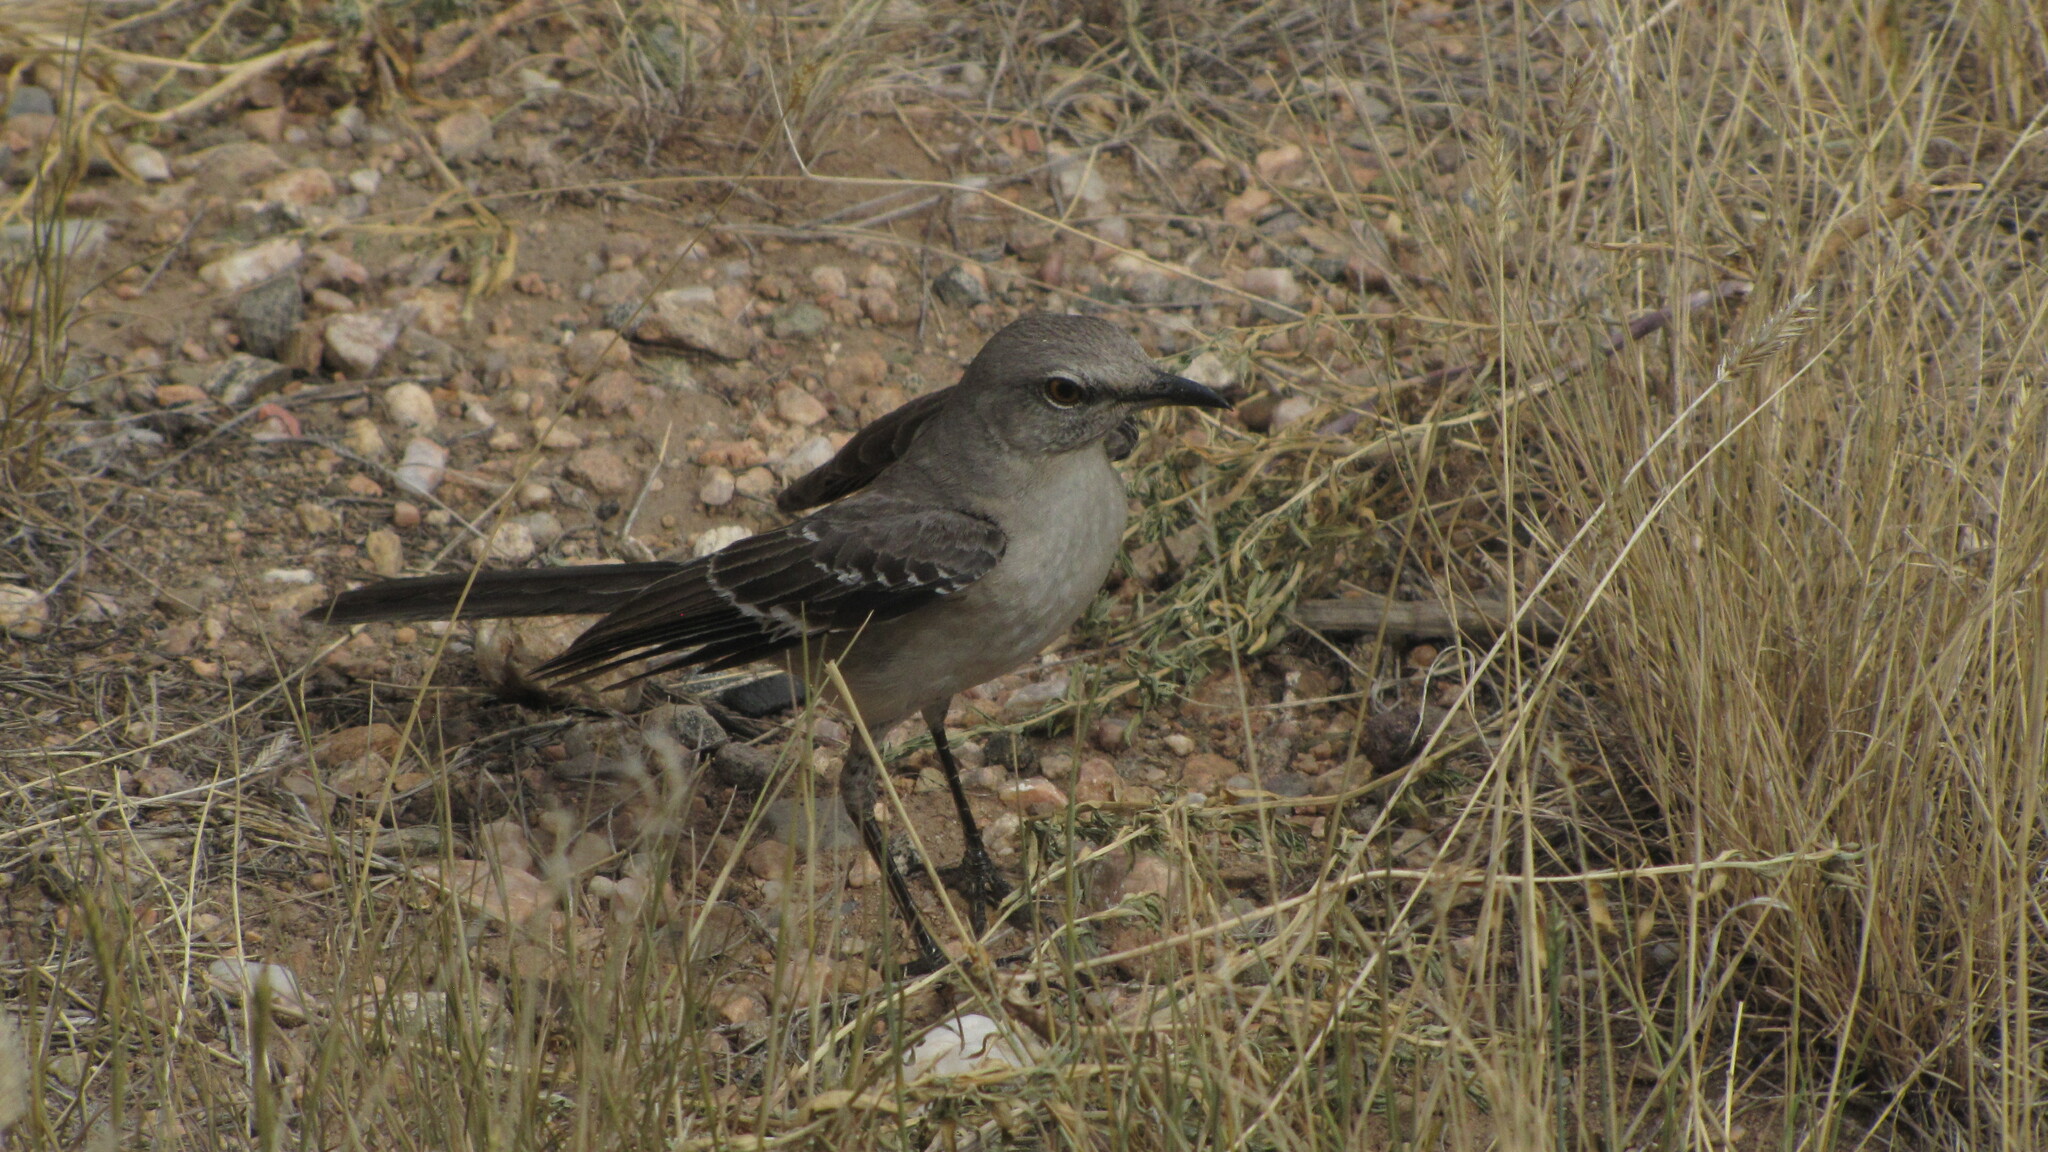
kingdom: Animalia
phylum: Chordata
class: Aves
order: Passeriformes
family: Mimidae
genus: Mimus
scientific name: Mimus polyglottos
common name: Northern mockingbird
